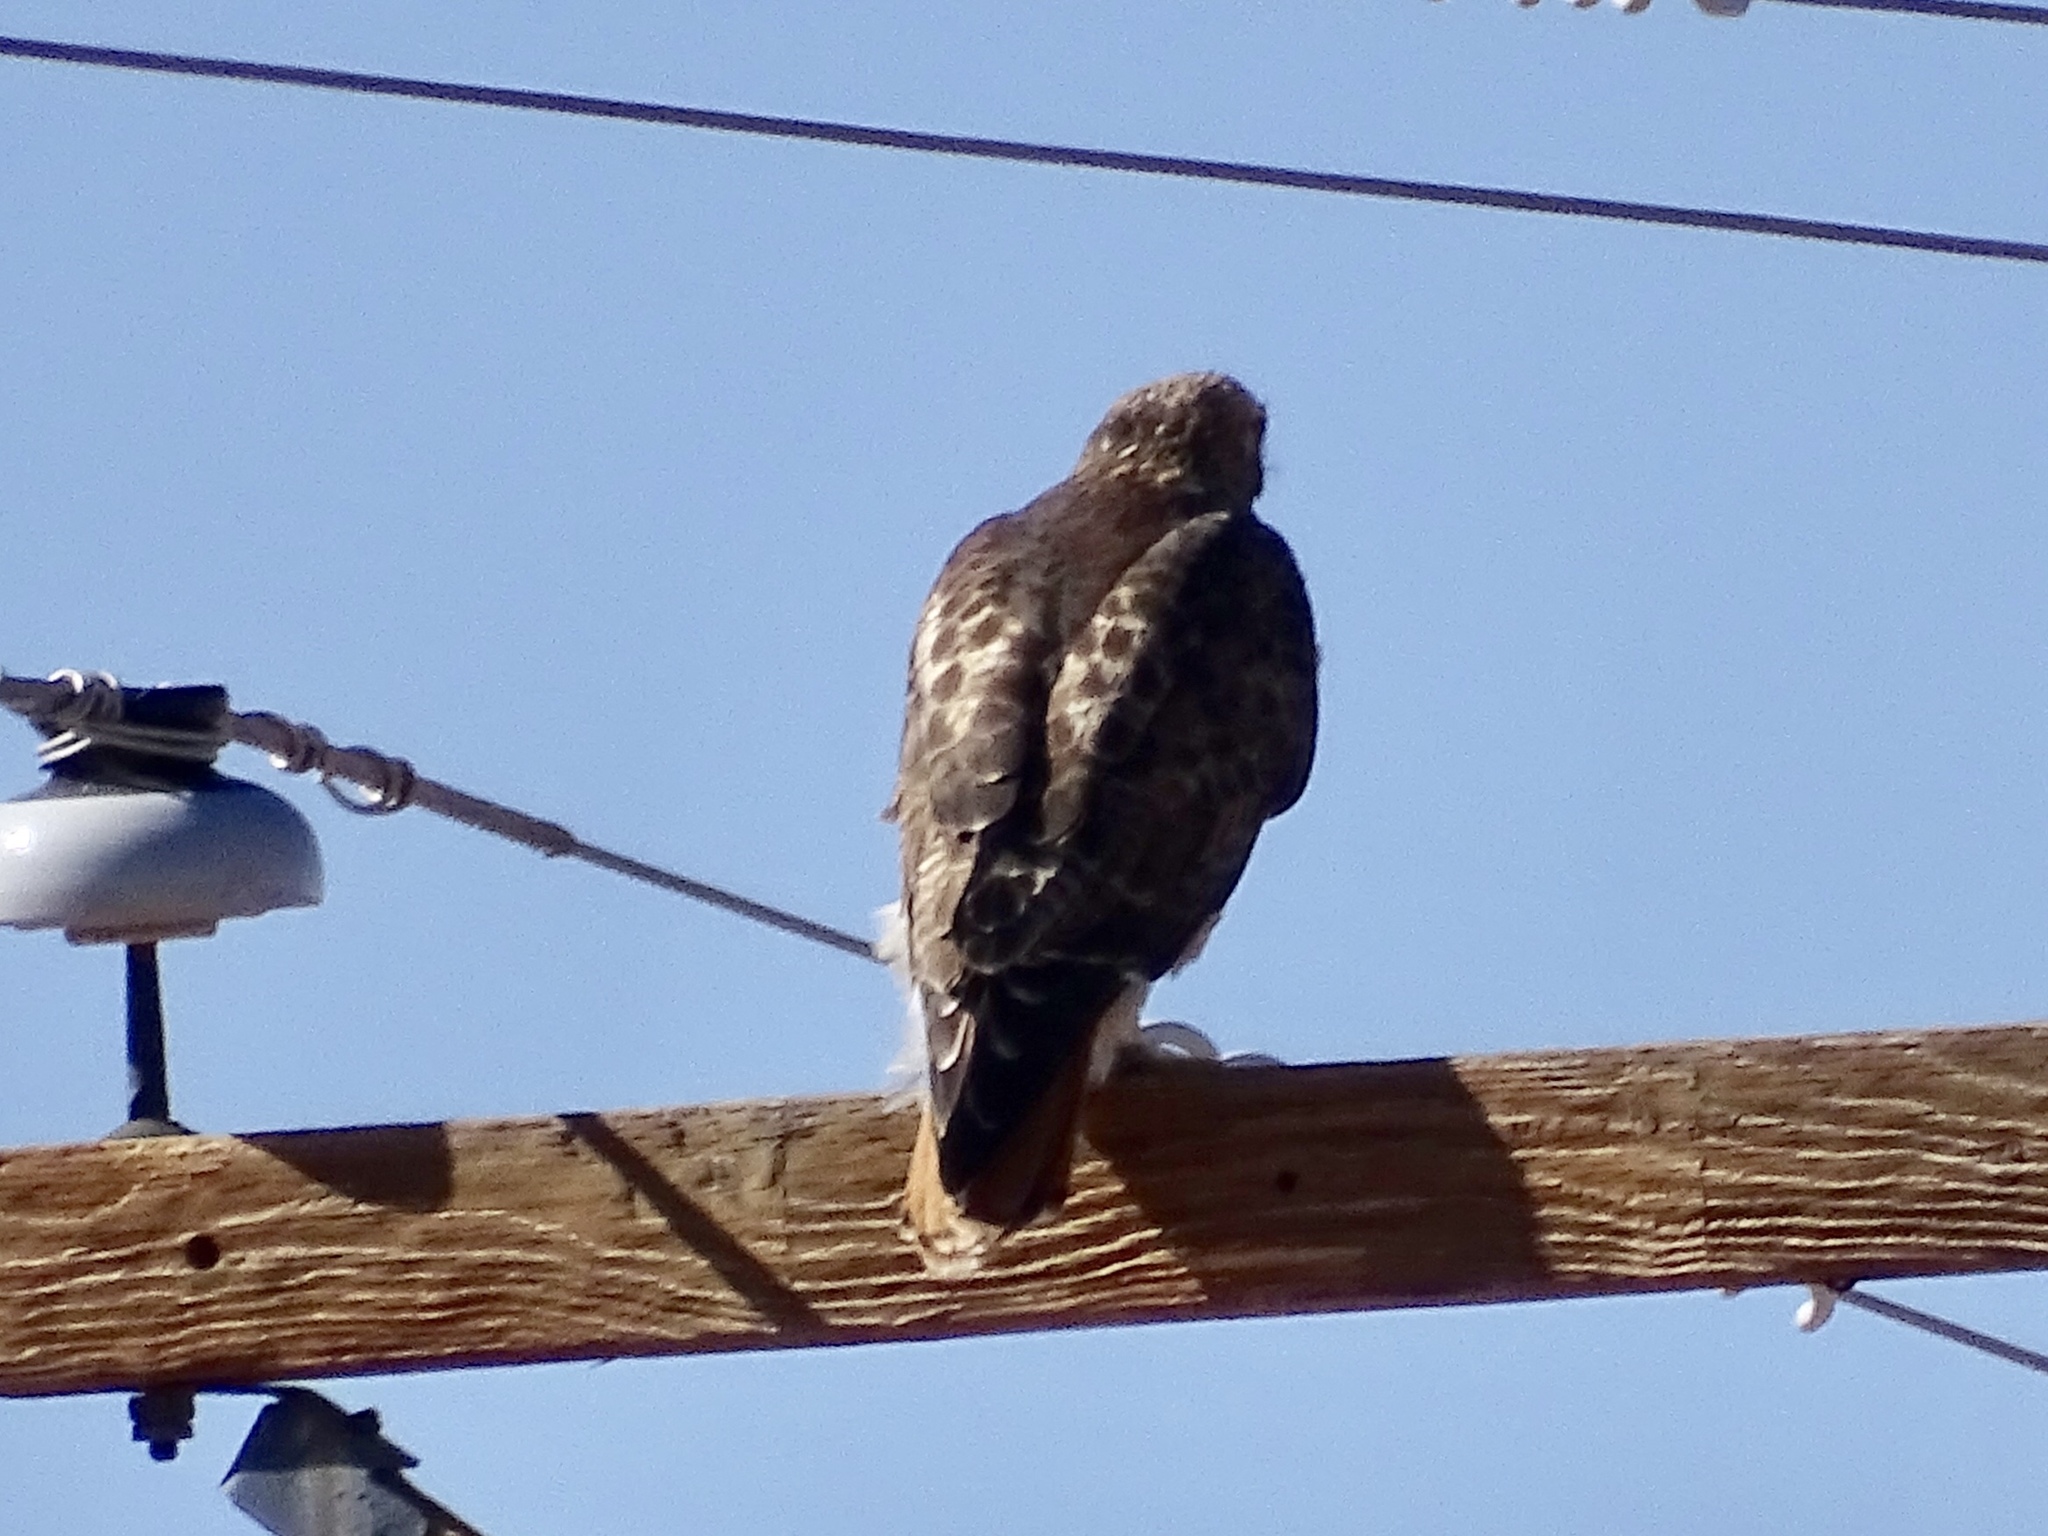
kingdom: Animalia
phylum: Chordata
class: Aves
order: Accipitriformes
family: Accipitridae
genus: Buteo
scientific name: Buteo jamaicensis
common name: Red-tailed hawk
